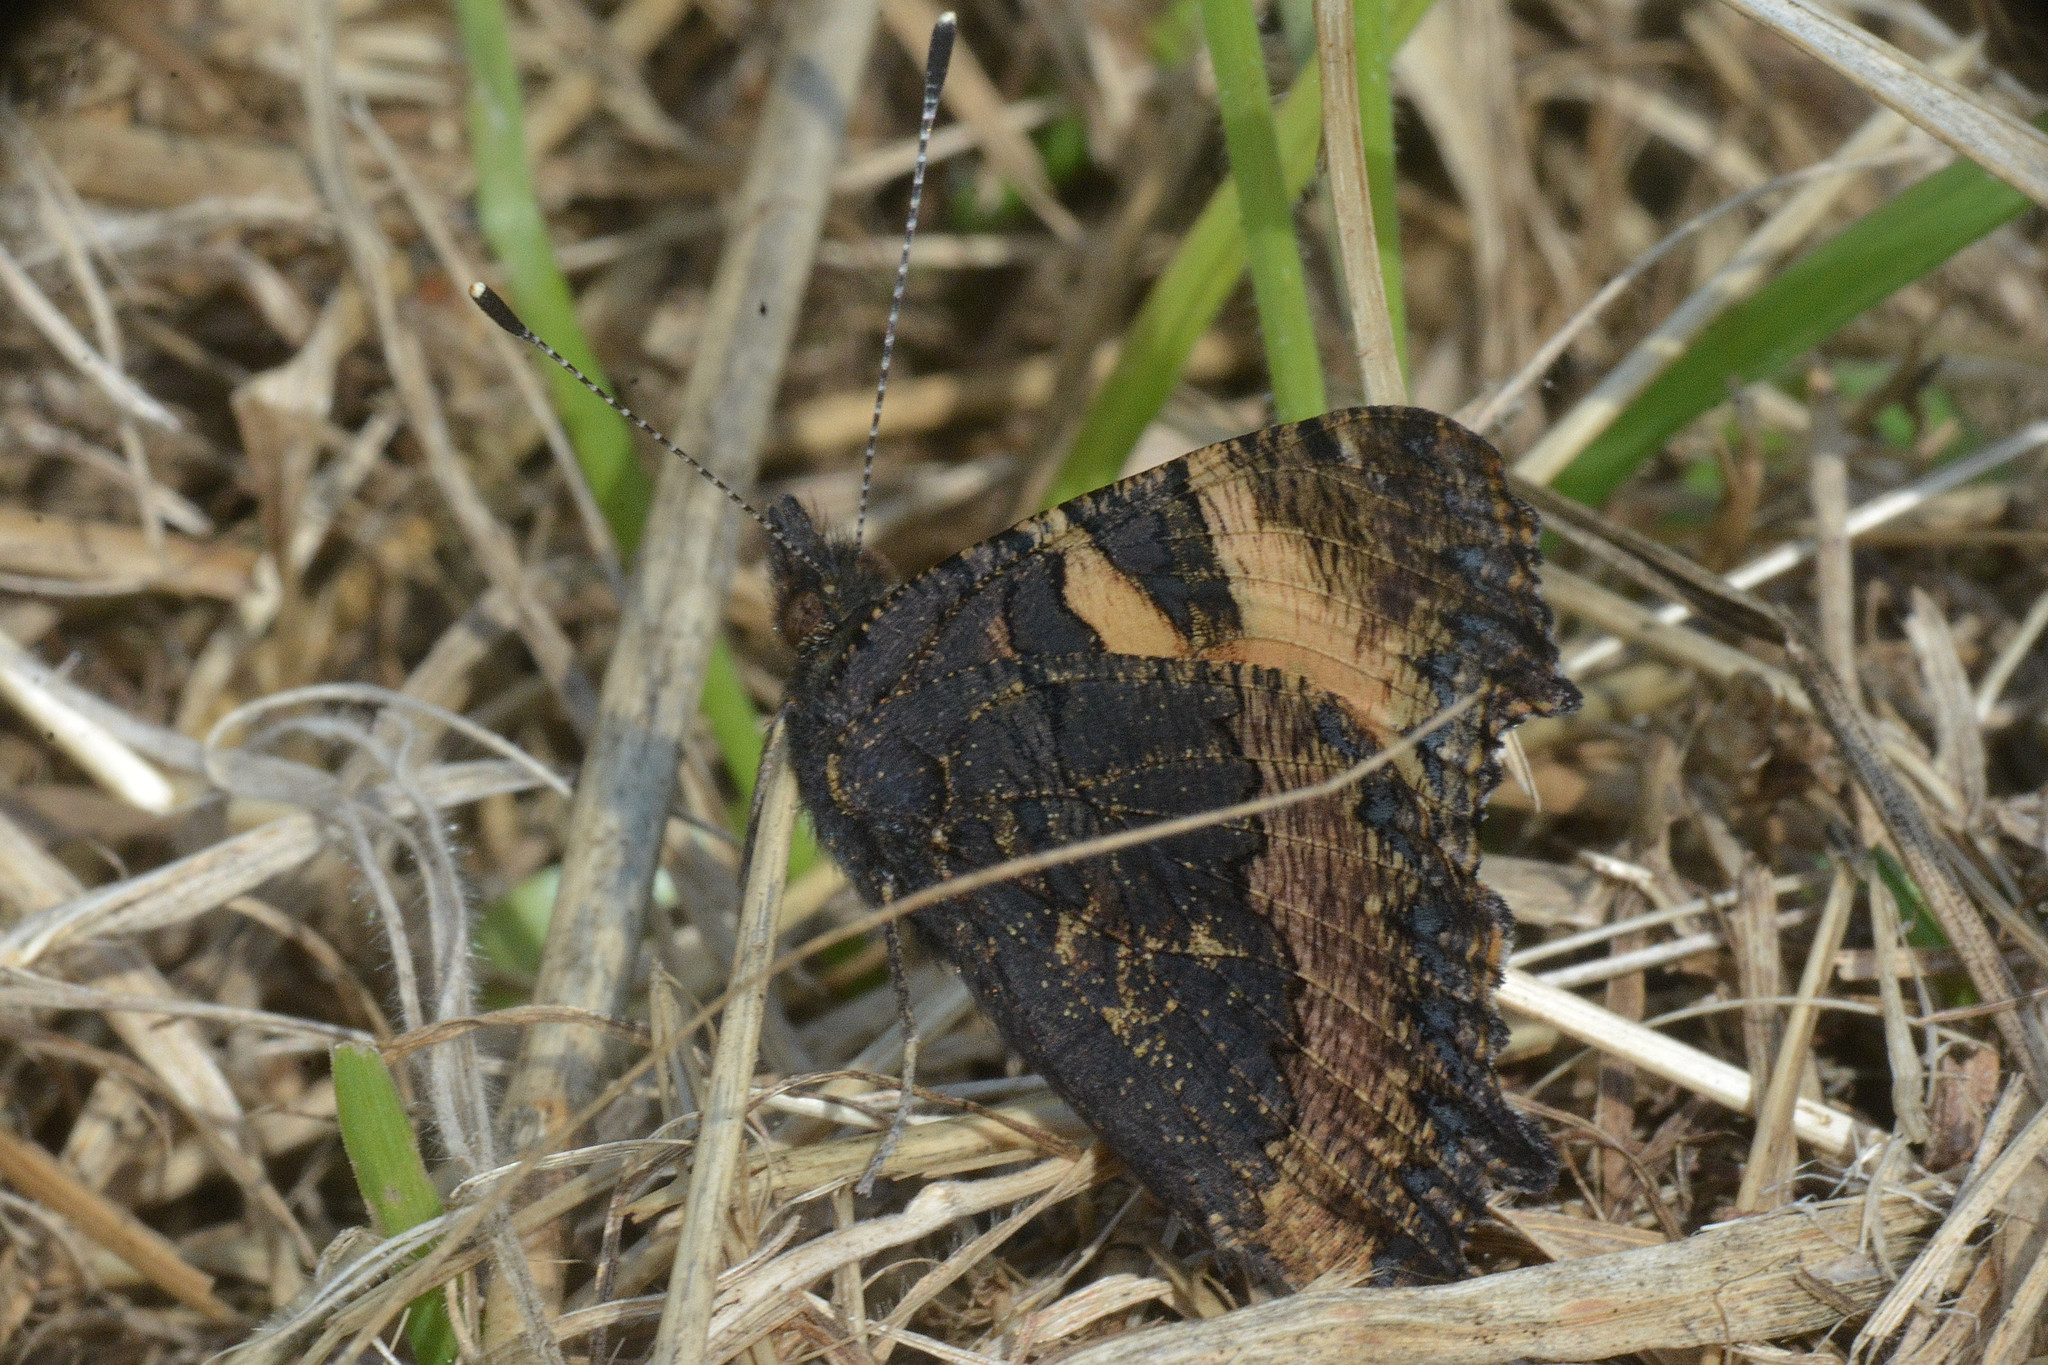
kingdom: Animalia
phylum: Arthropoda
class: Insecta
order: Lepidoptera
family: Nymphalidae
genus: Aglais
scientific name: Aglais urticae
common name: Small tortoiseshell
